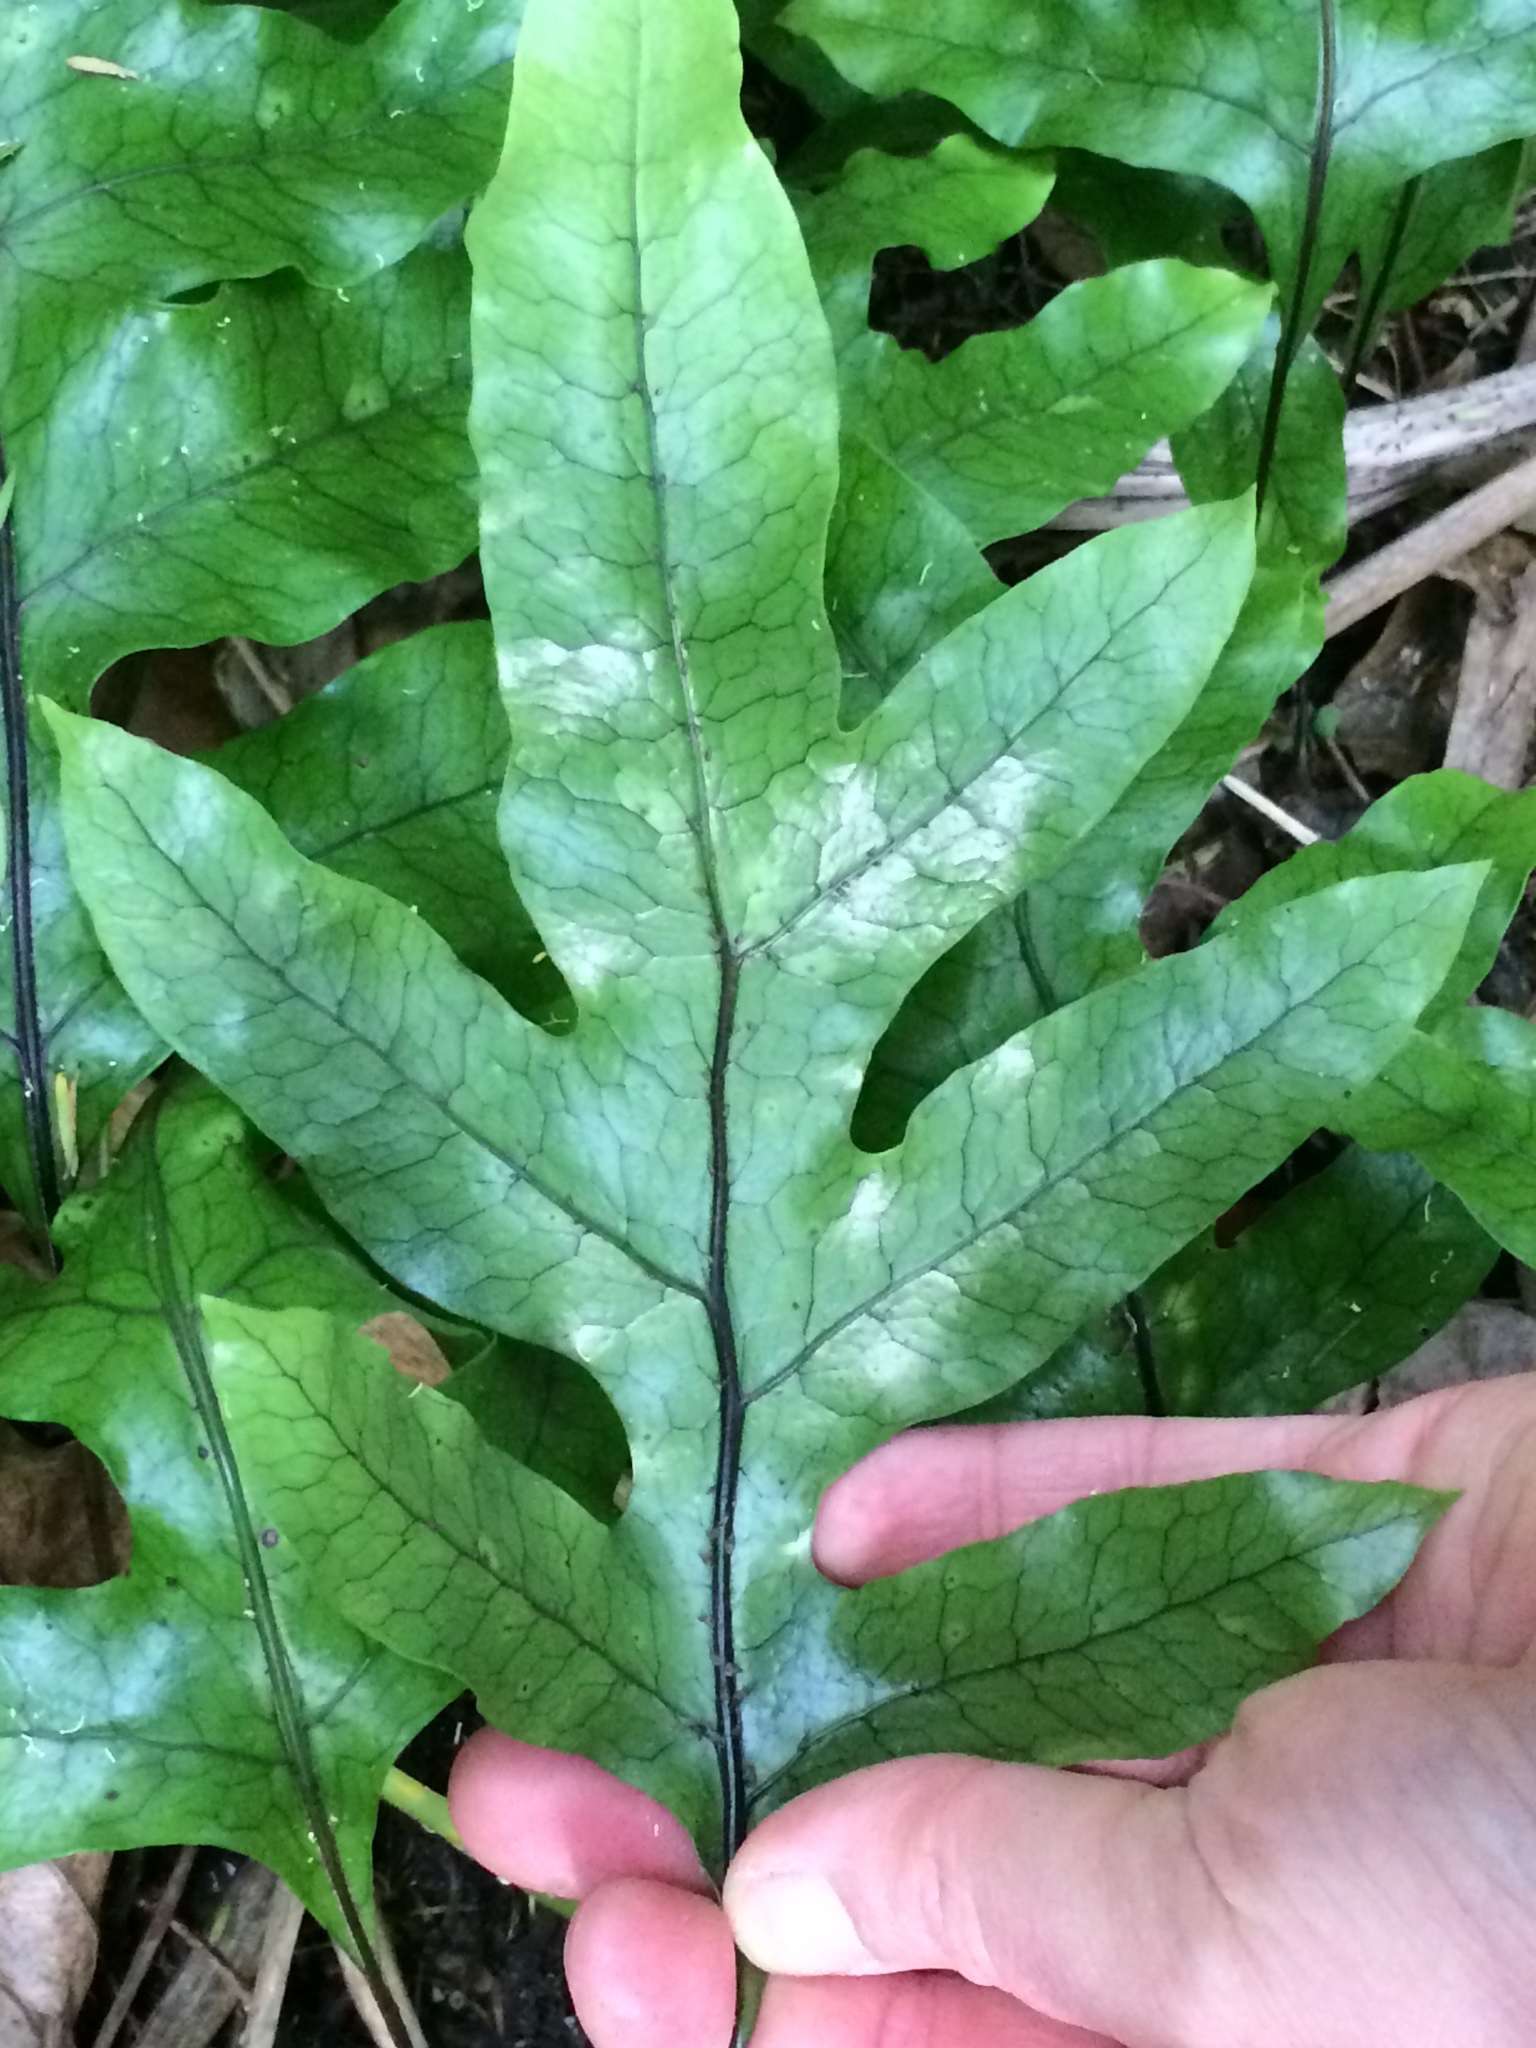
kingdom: Plantae
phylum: Tracheophyta
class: Polypodiopsida
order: Polypodiales
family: Polypodiaceae
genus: Lecanopteris
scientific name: Lecanopteris pustulata
